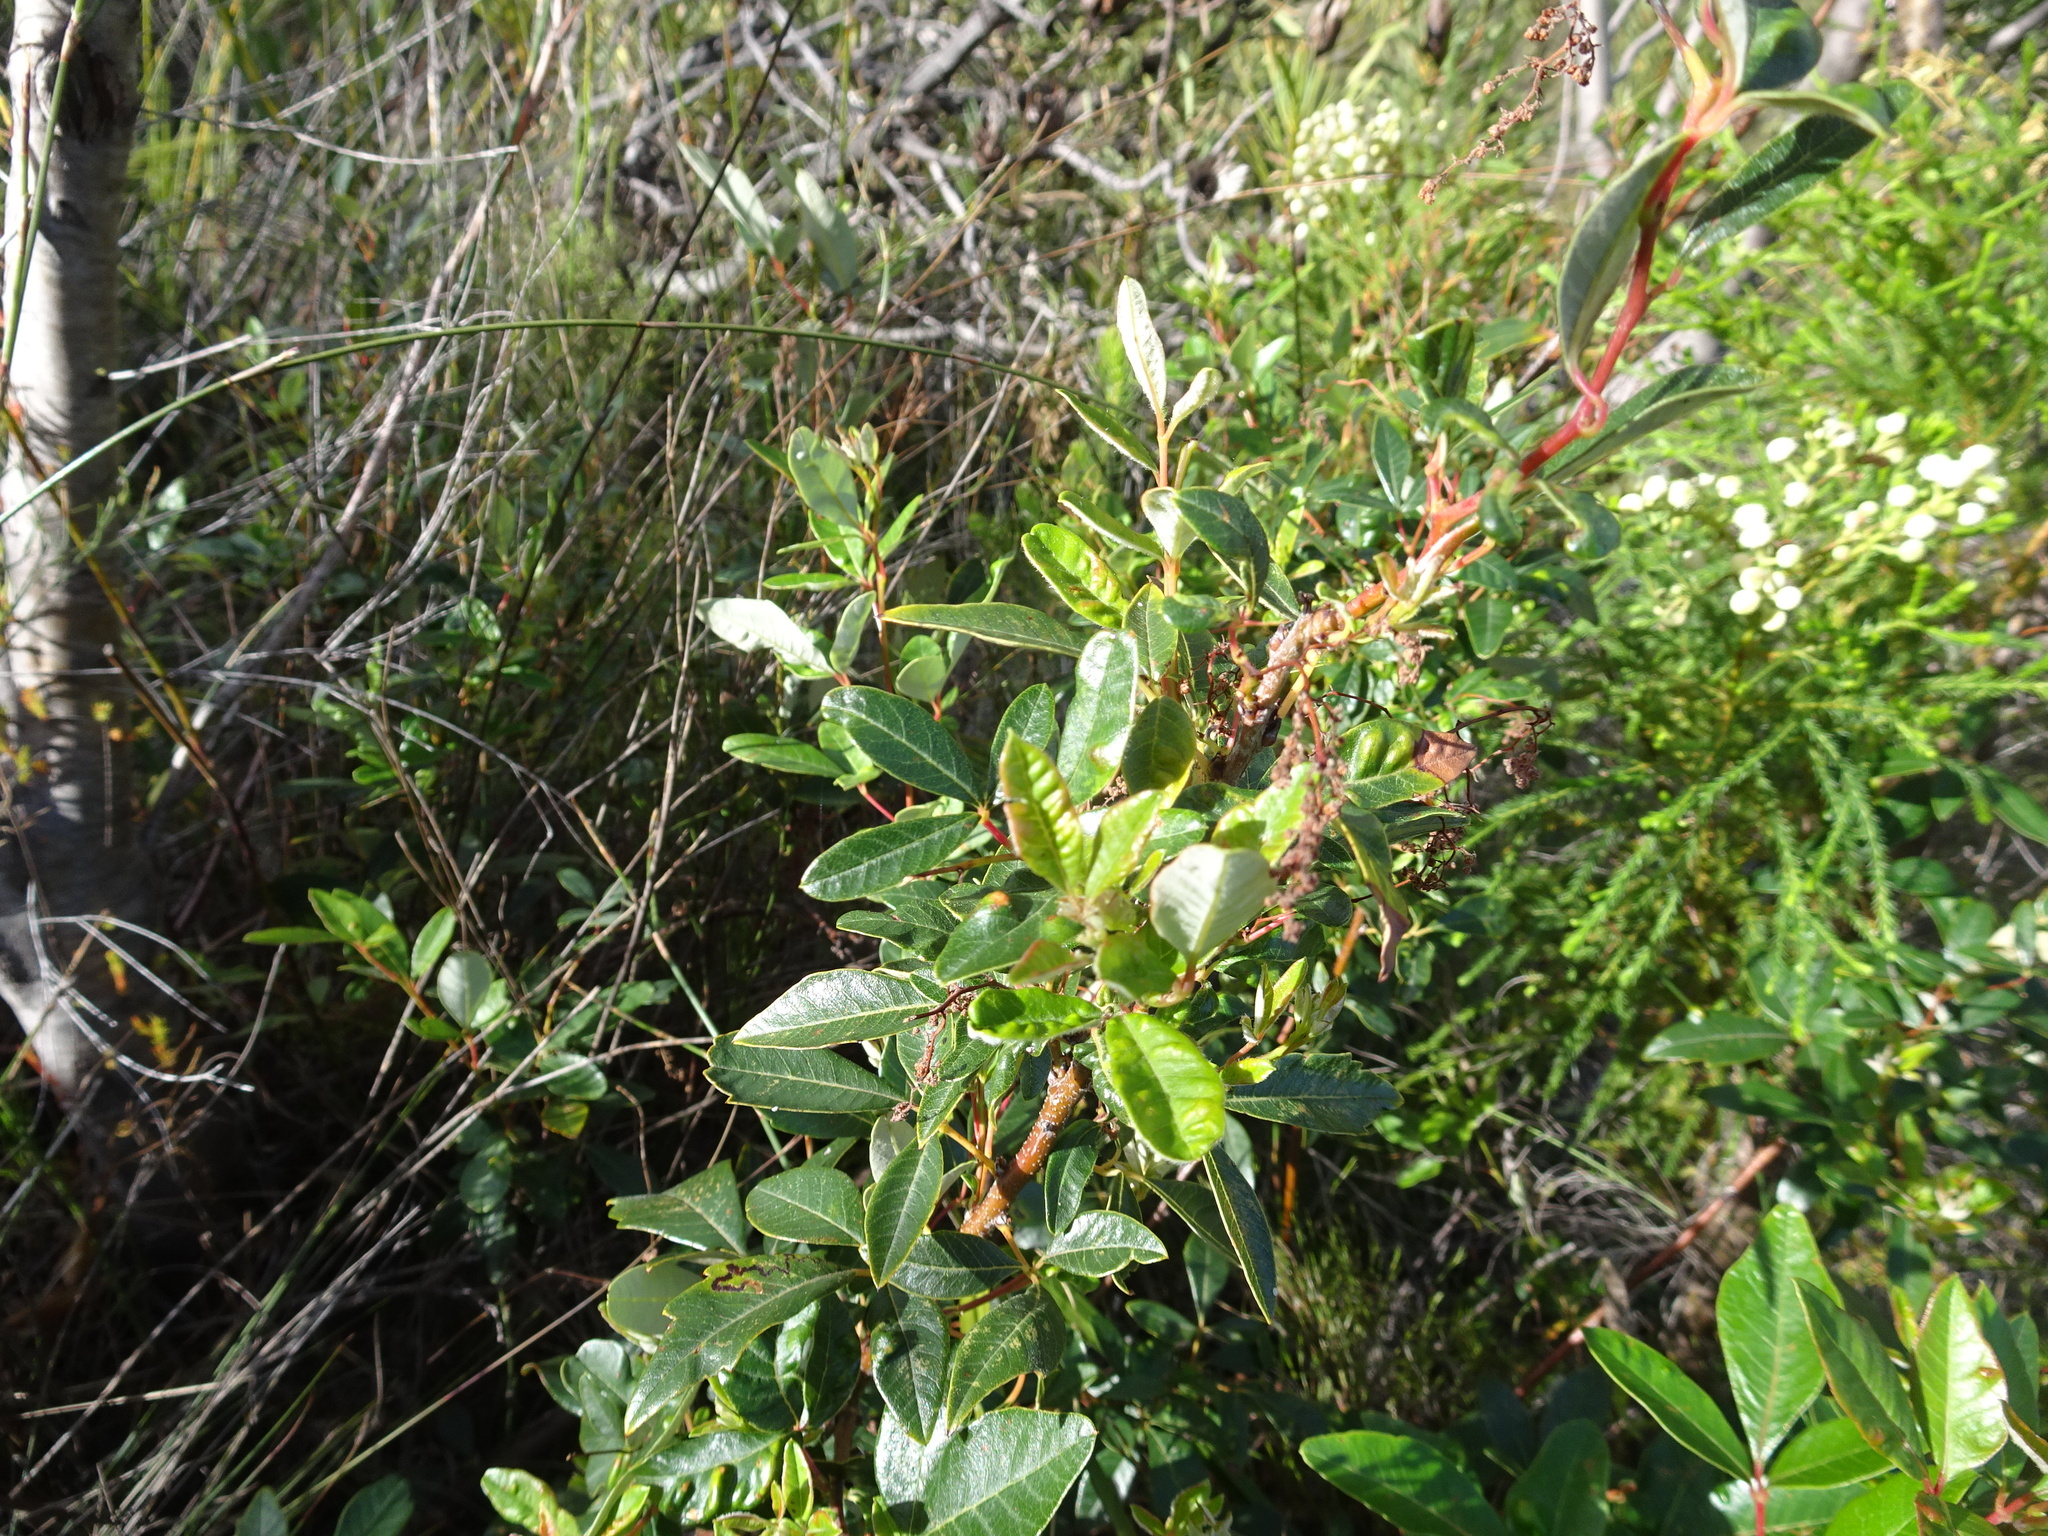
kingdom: Plantae
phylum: Tracheophyta
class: Magnoliopsida
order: Sapindales
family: Anacardiaceae
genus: Searsia
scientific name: Searsia tomentosa
